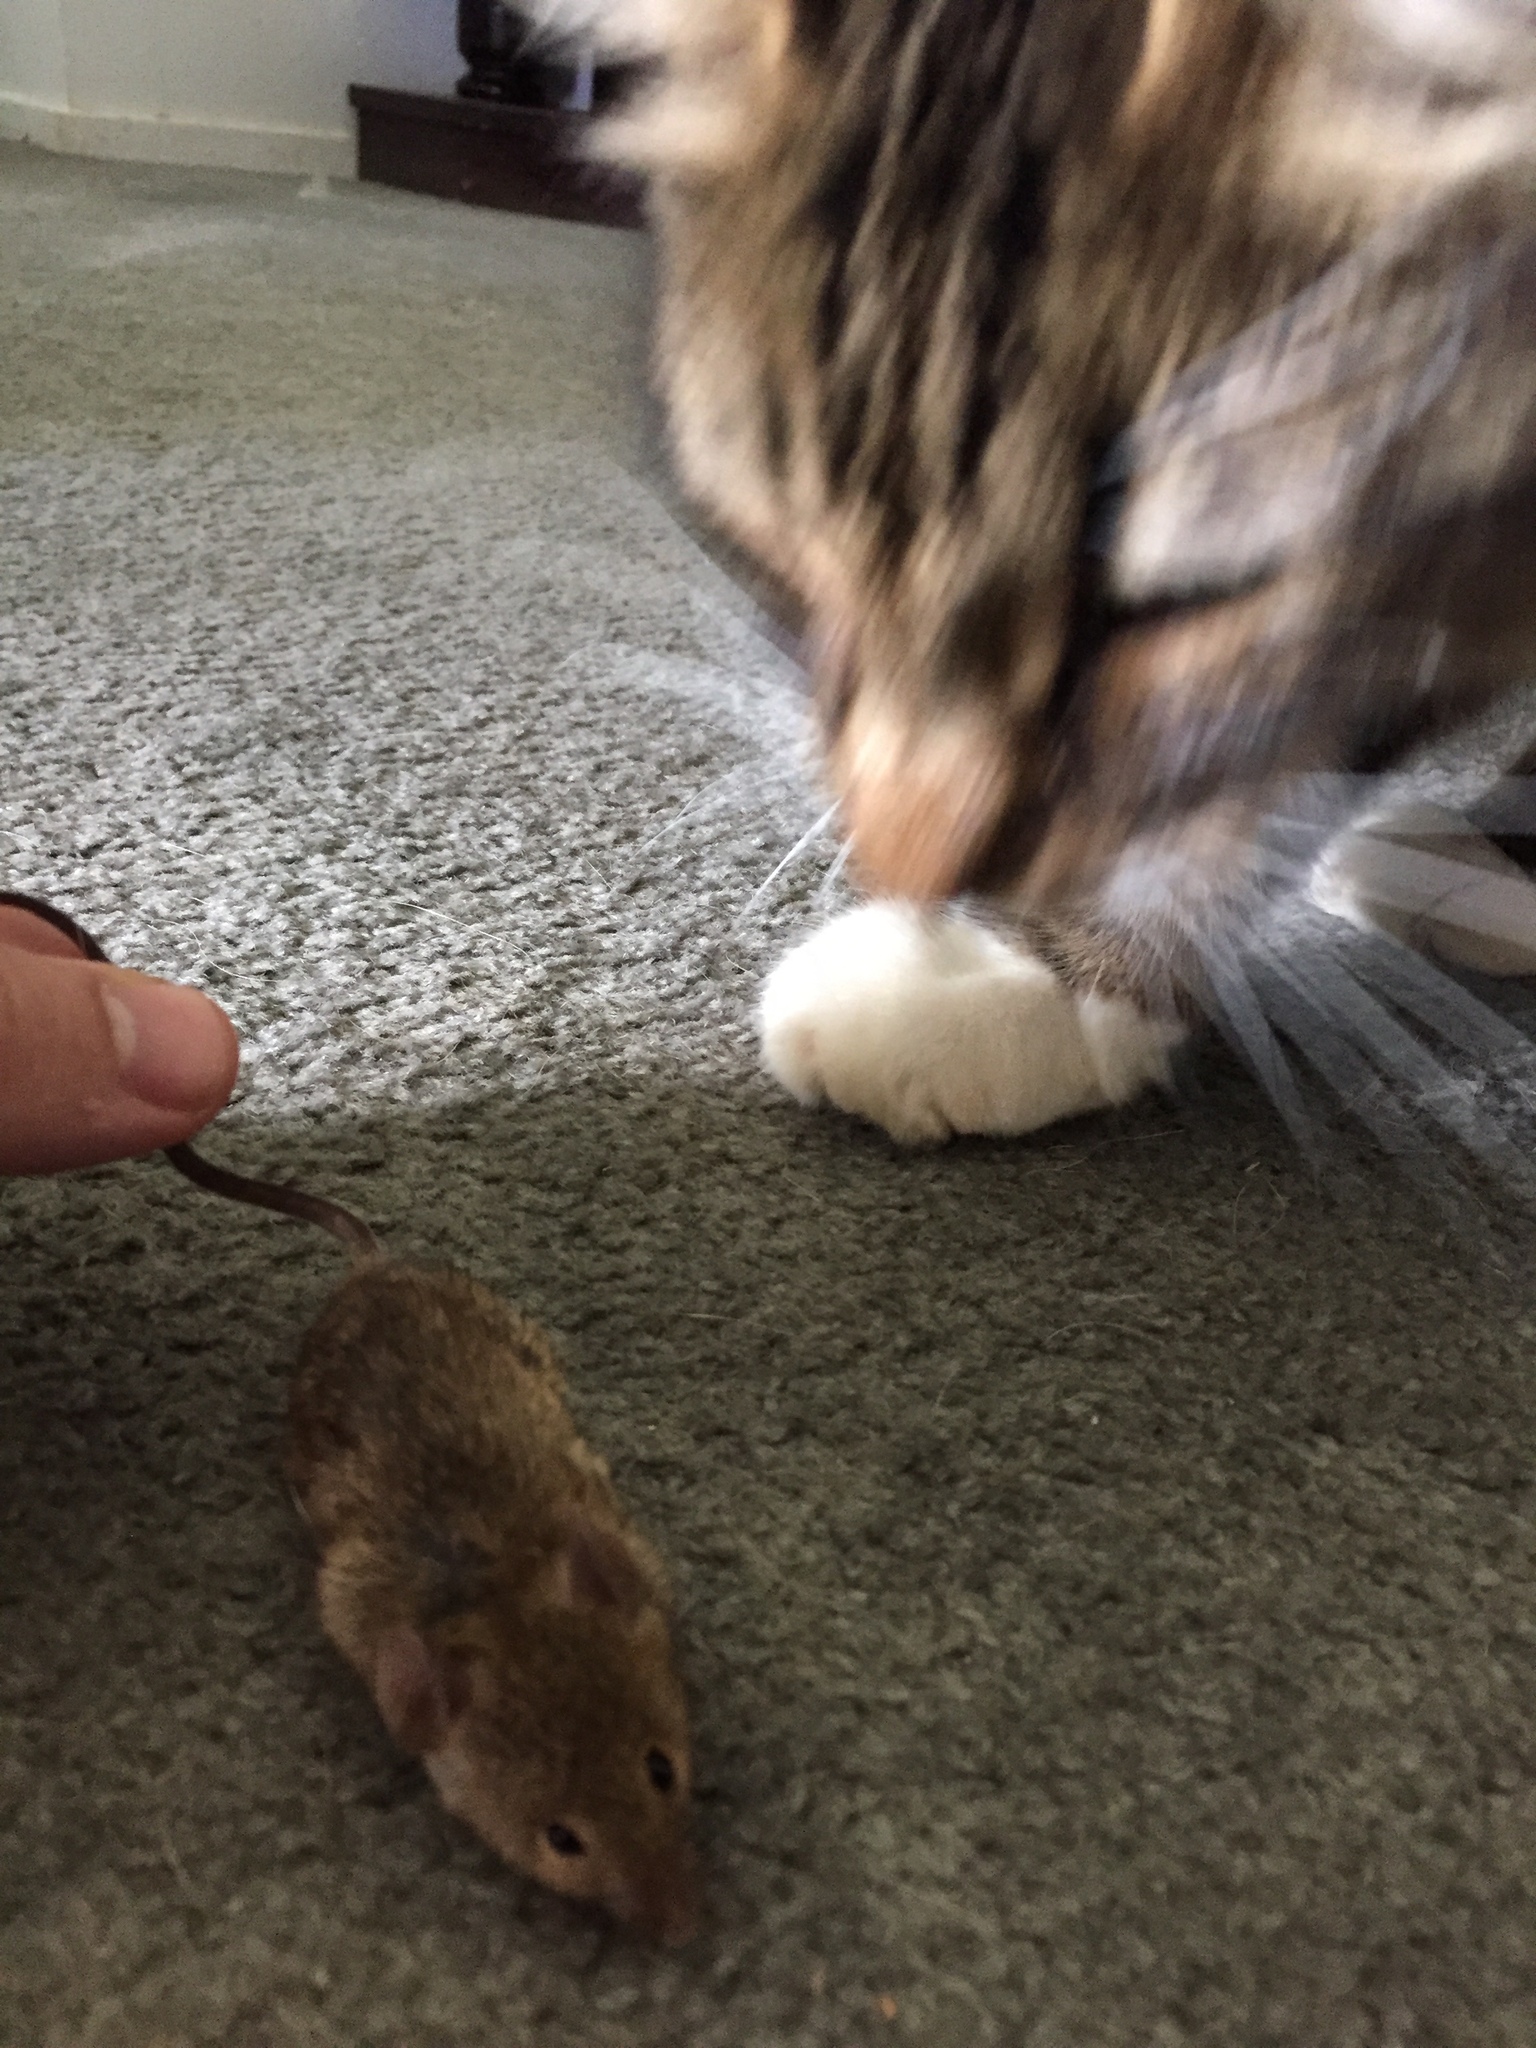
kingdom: Animalia
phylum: Chordata
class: Mammalia
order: Rodentia
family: Muridae
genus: Mus
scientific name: Mus musculus
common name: House mouse
